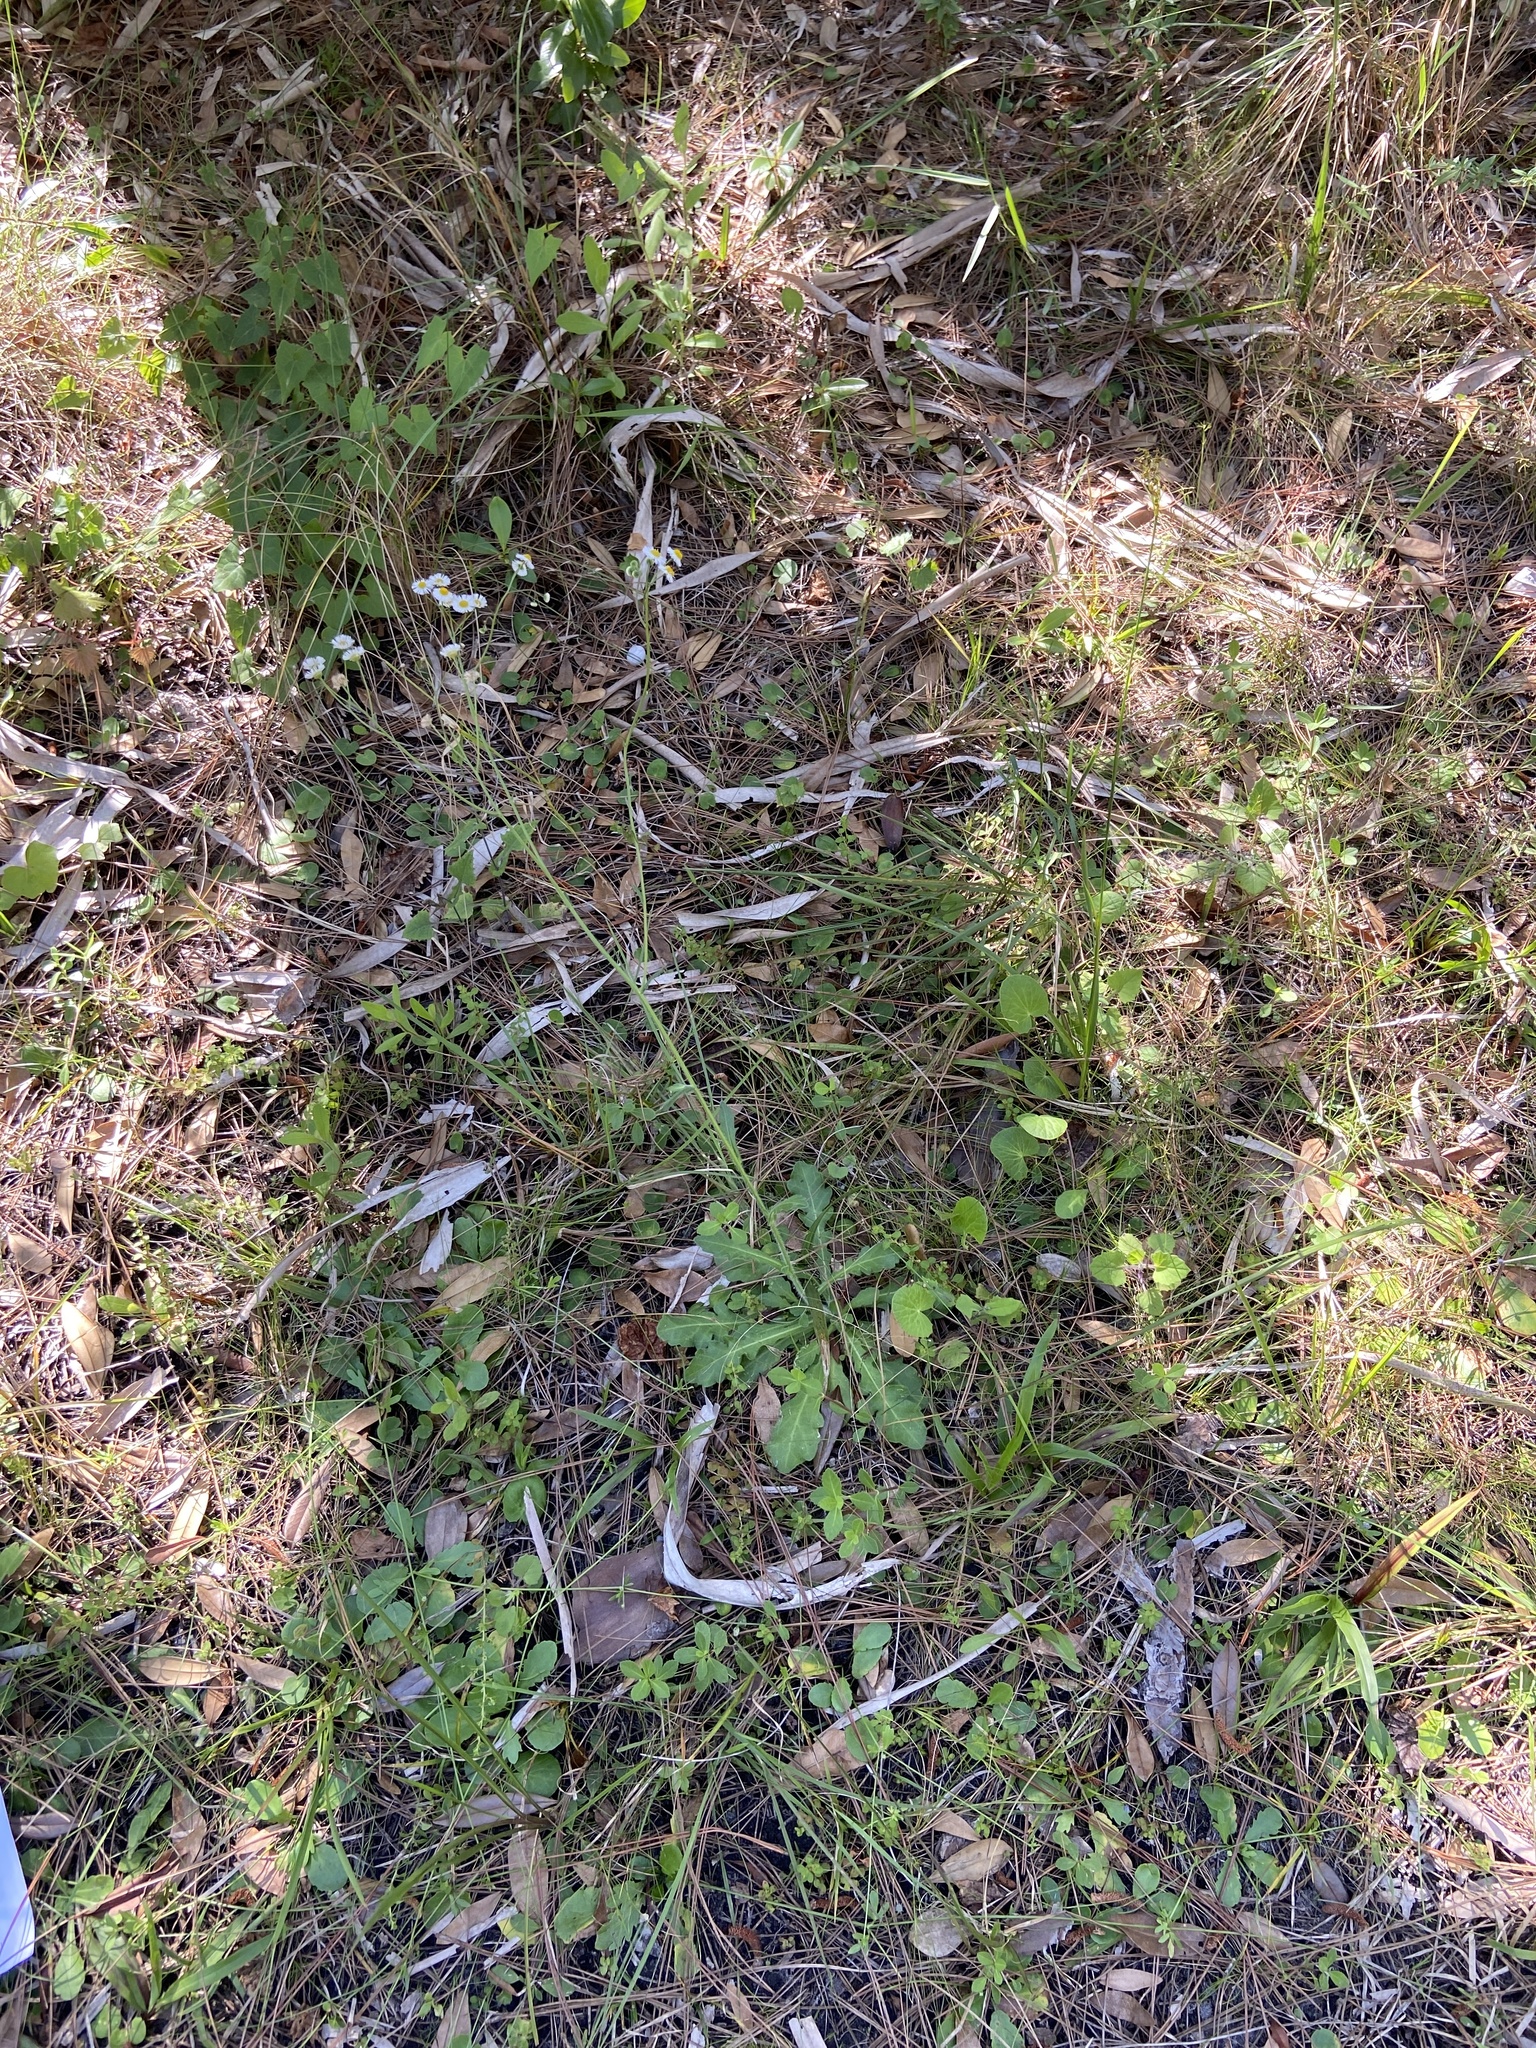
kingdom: Plantae
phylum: Tracheophyta
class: Magnoliopsida
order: Asterales
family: Asteraceae
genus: Erigeron
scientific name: Erigeron quercifolius
